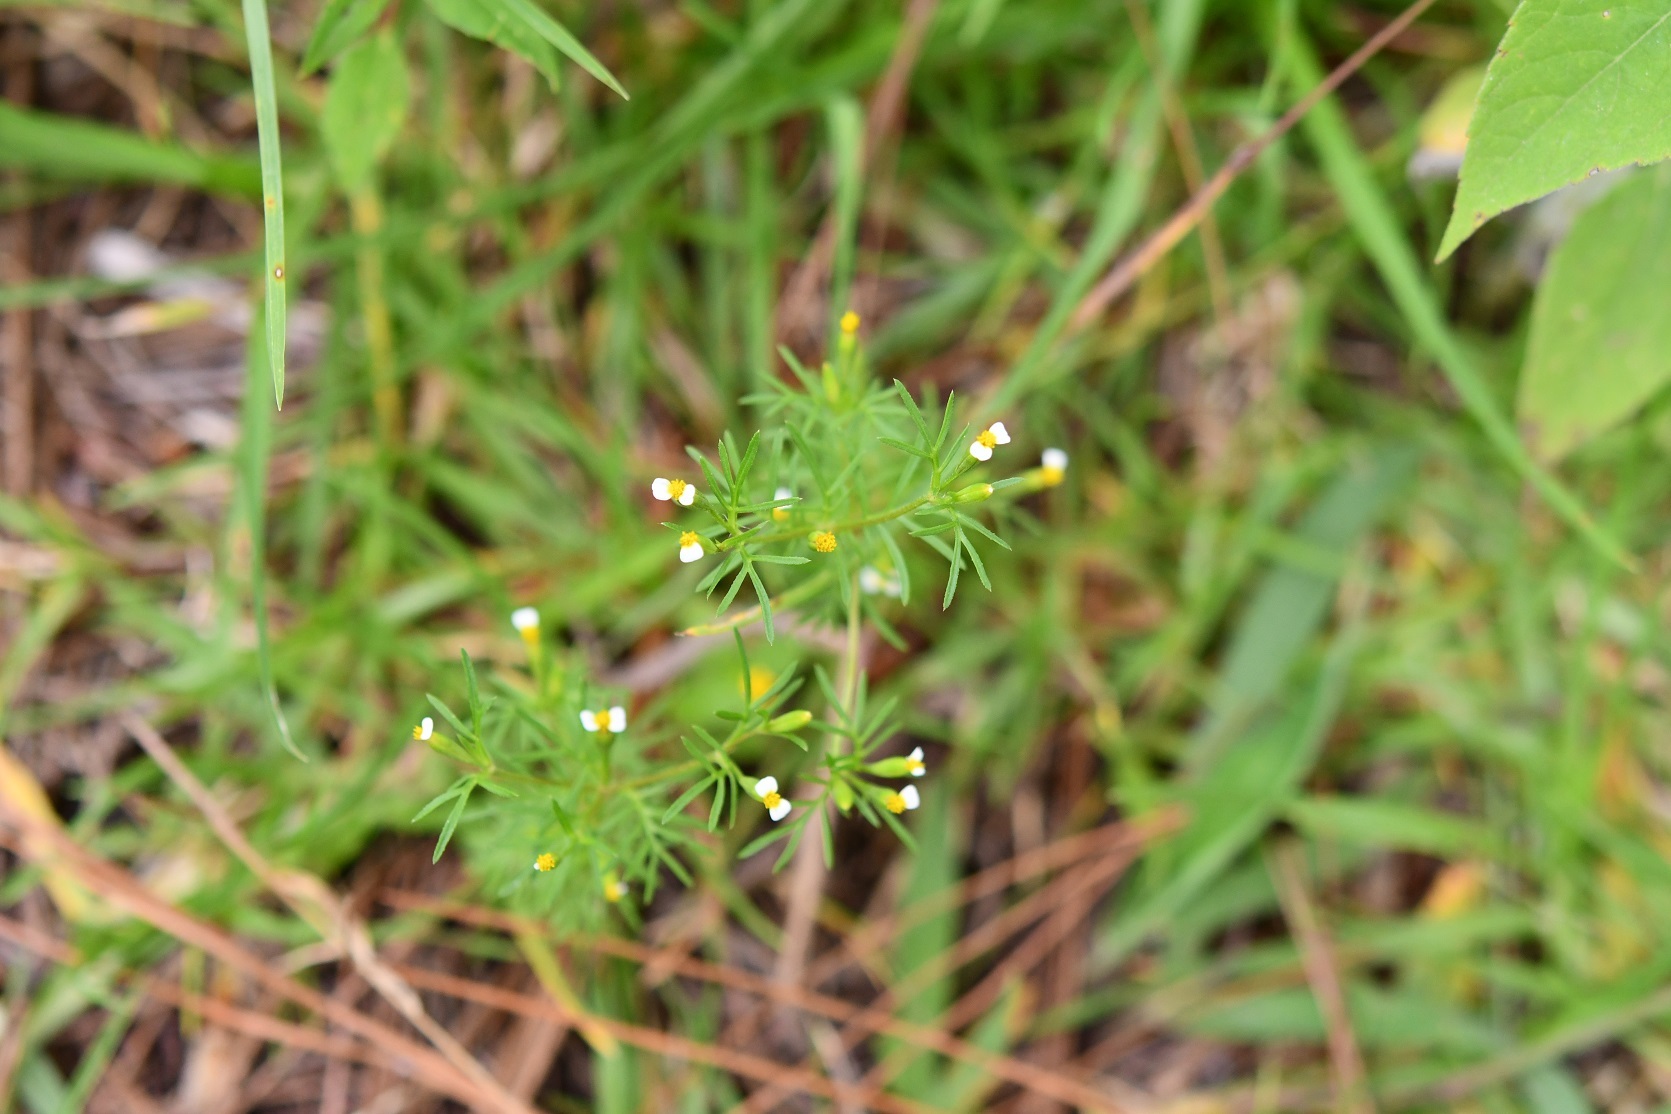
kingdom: Plantae
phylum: Tracheophyta
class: Magnoliopsida
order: Asterales
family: Asteraceae
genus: Tagetes
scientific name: Tagetes filifolia
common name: Lesser marigold
